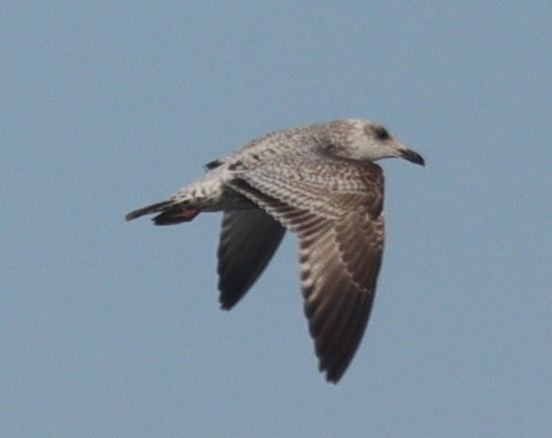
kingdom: Animalia
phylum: Chordata
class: Aves
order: Charadriiformes
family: Laridae
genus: Larus
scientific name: Larus argentatus
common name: Herring gull
